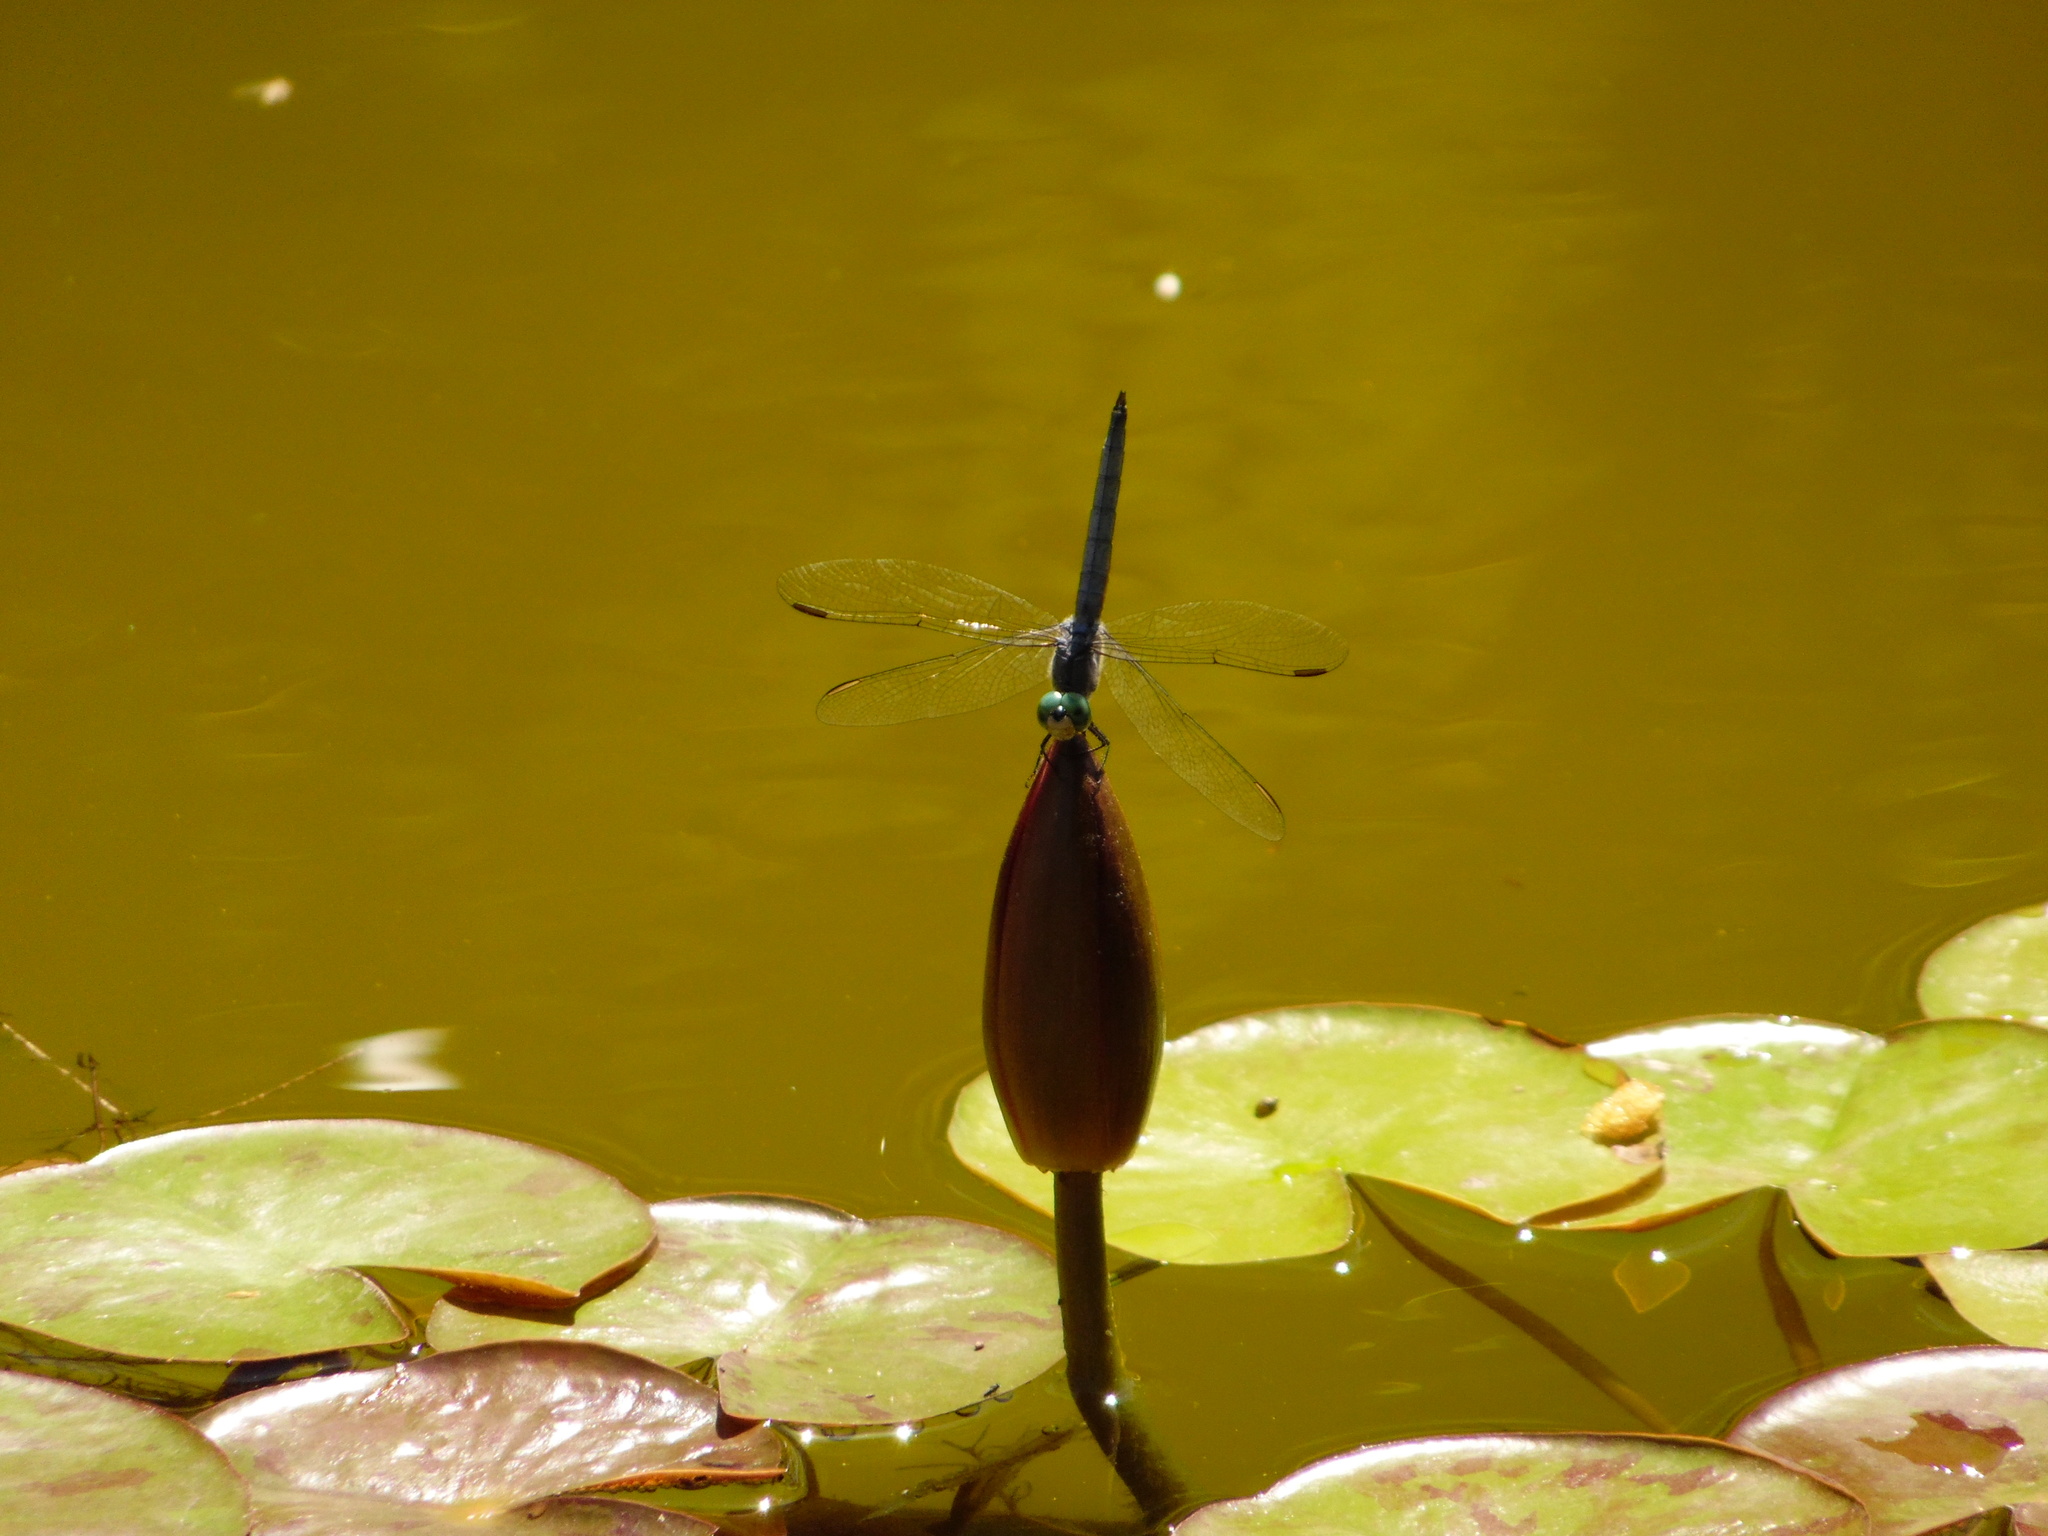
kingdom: Animalia
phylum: Arthropoda
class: Insecta
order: Odonata
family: Libellulidae
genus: Pachydiplax
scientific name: Pachydiplax longipennis
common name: Blue dasher
